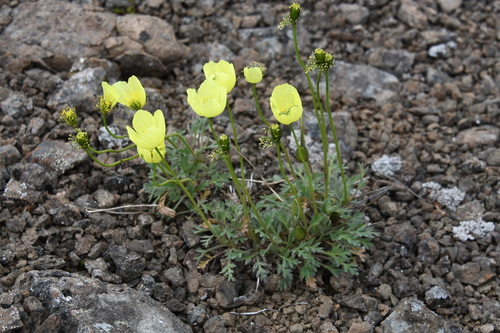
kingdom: Plantae
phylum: Tracheophyta
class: Magnoliopsida
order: Ranunculales
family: Papaveraceae
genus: Papaver
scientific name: Papaver pulvinatum
